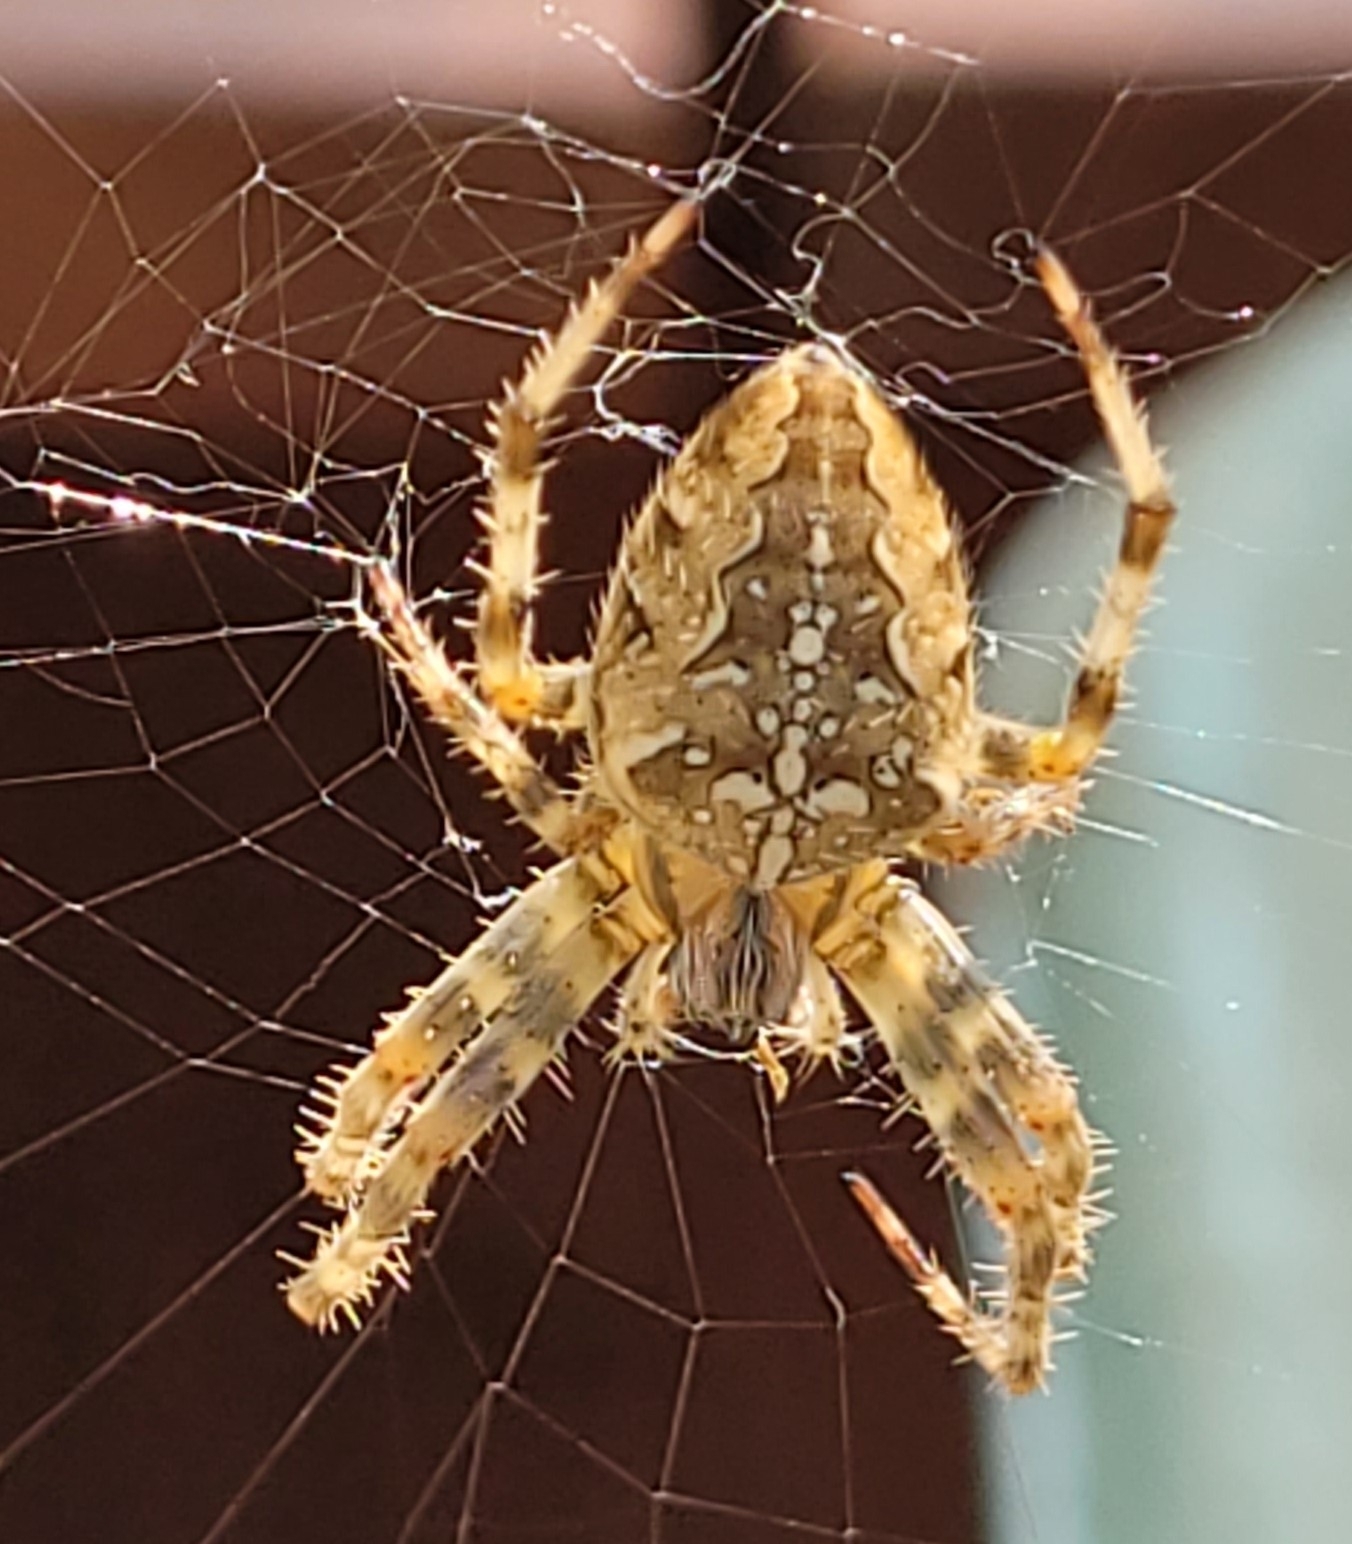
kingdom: Animalia
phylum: Arthropoda
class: Arachnida
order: Araneae
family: Araneidae
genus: Araneus
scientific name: Araneus diadematus
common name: Cross orbweaver
